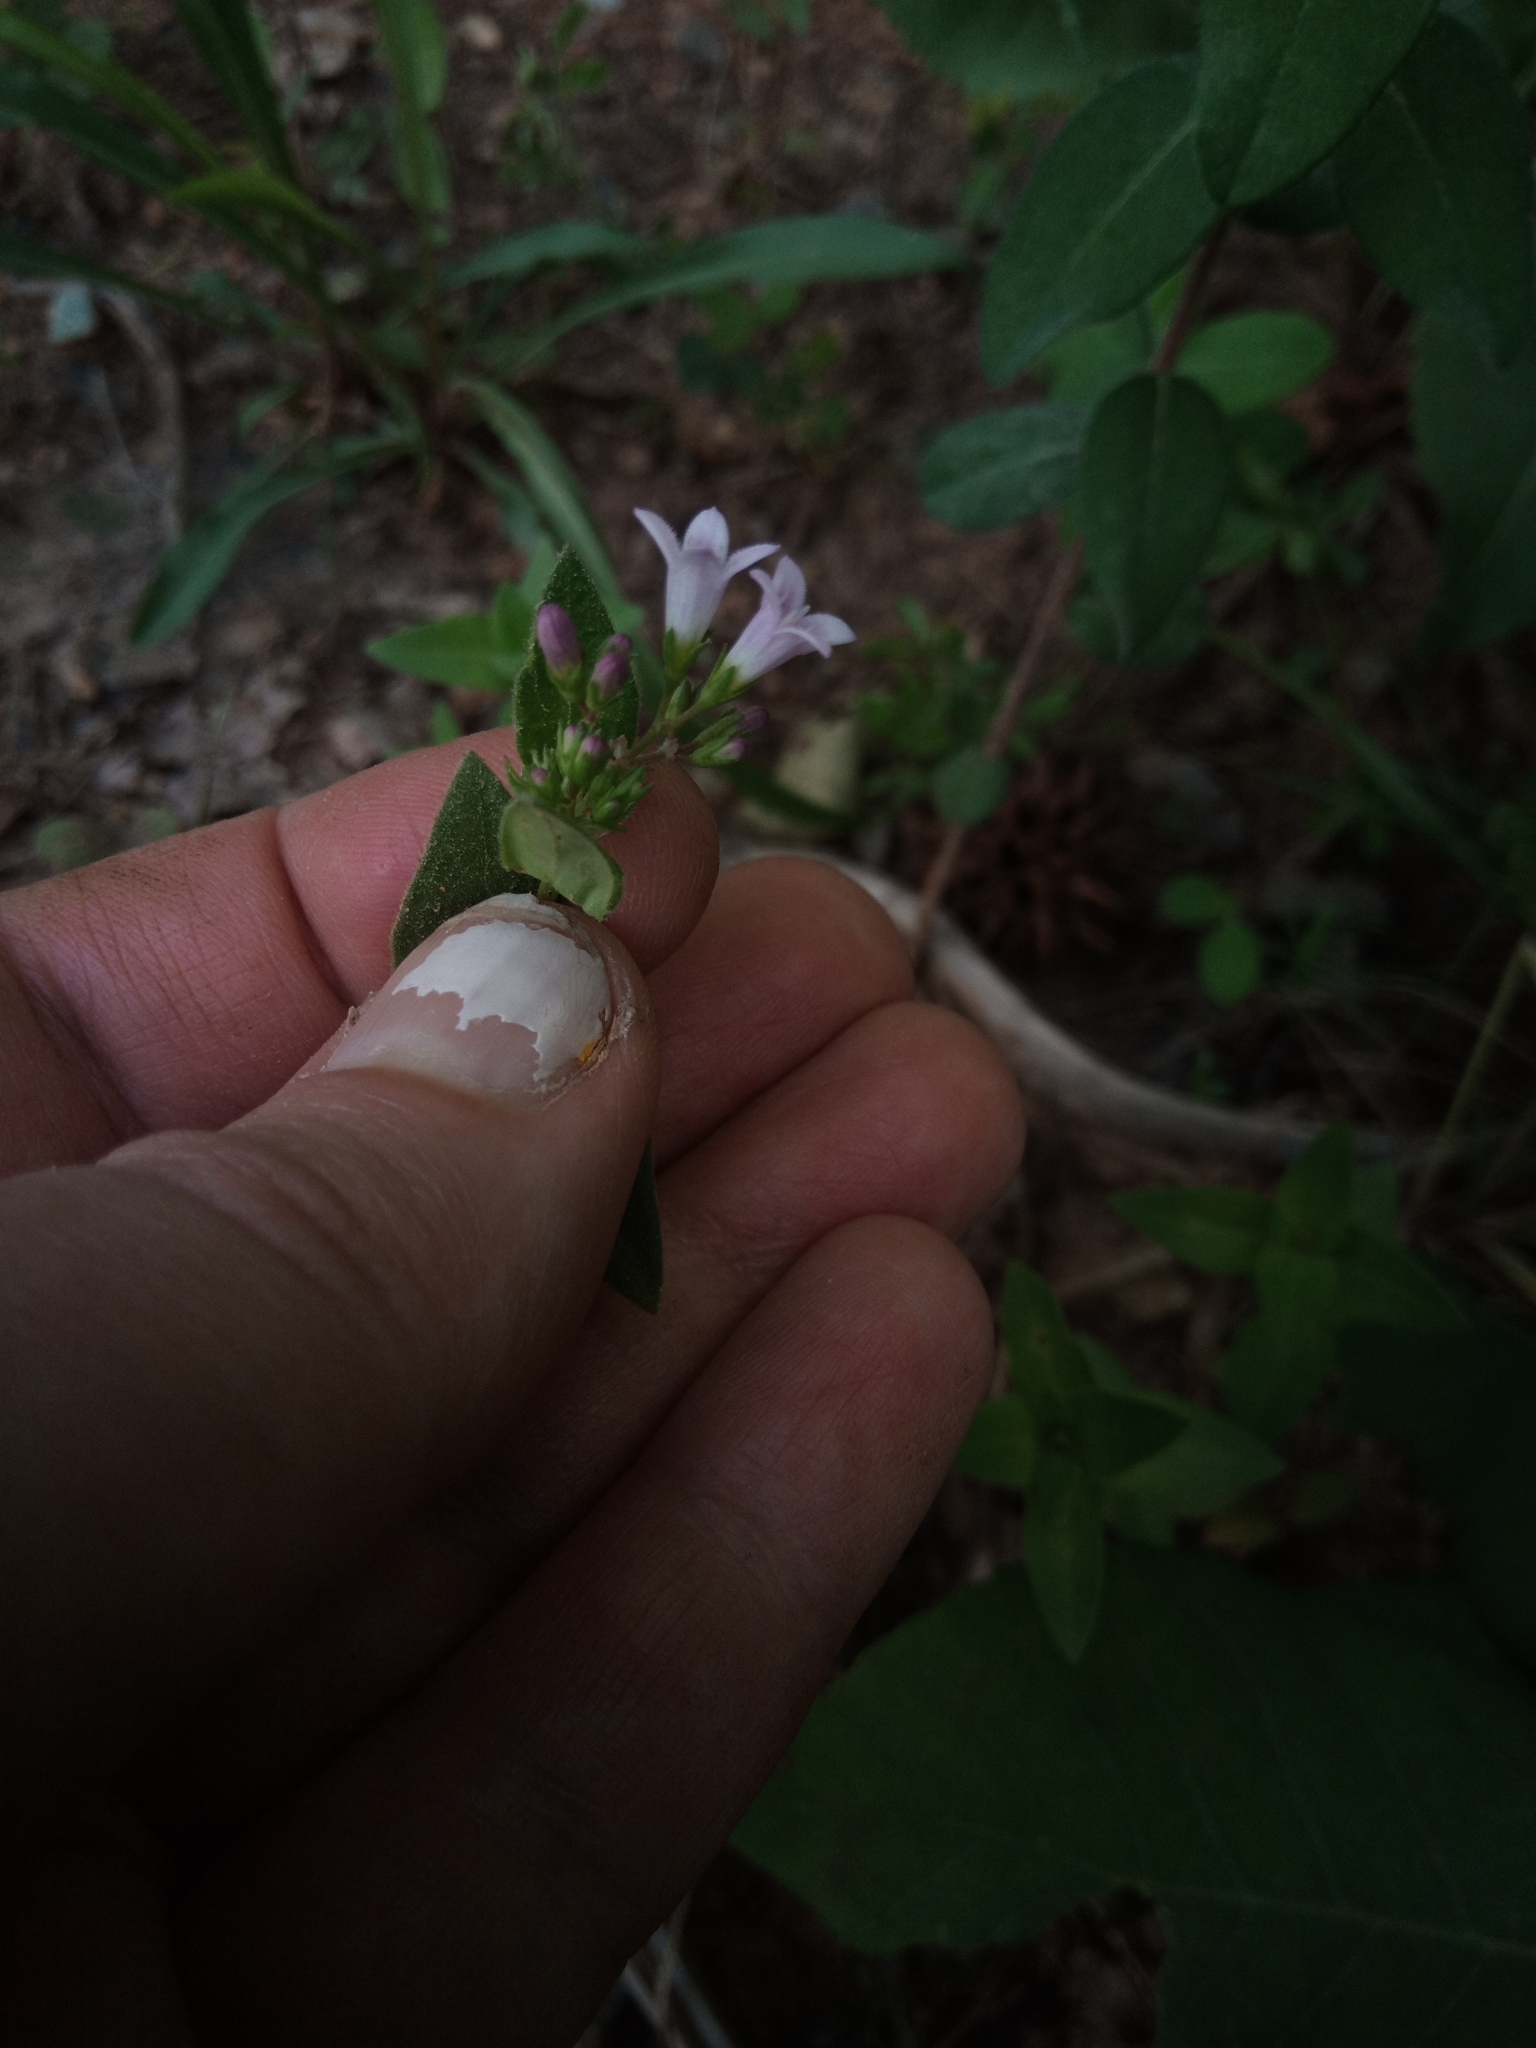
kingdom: Plantae
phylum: Tracheophyta
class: Magnoliopsida
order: Gentianales
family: Rubiaceae
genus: Houstonia
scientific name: Houstonia purpurea
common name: Summer bluet
